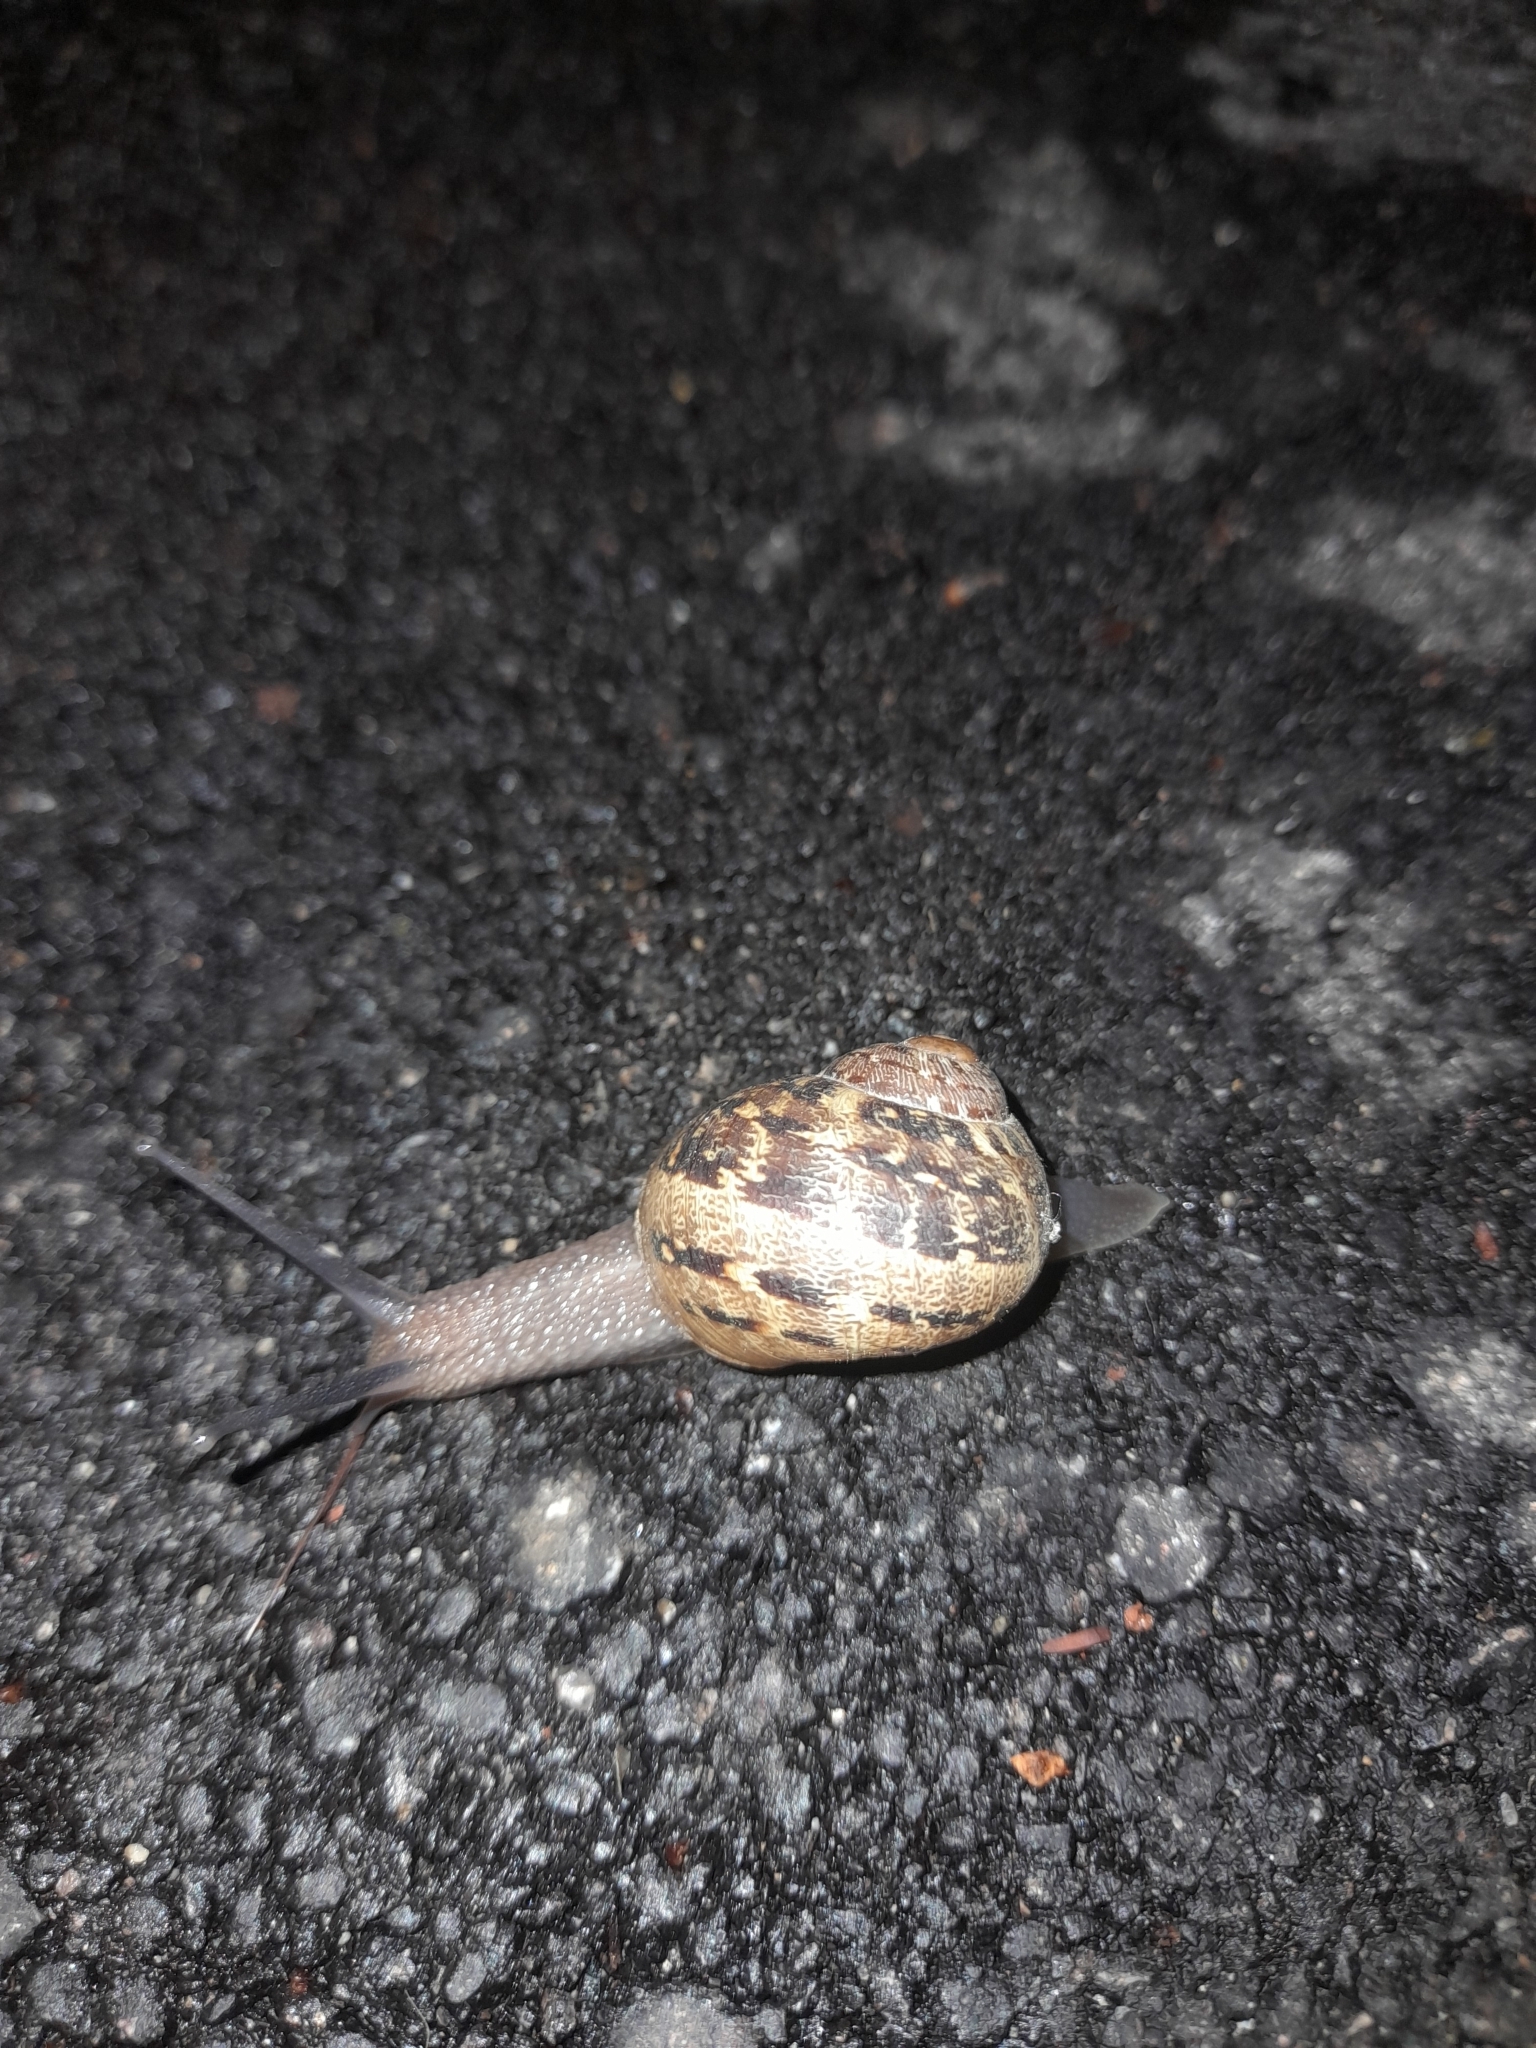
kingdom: Animalia
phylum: Mollusca
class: Gastropoda
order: Stylommatophora
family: Helicidae
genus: Cornu
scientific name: Cornu aspersum
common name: Brown garden snail
